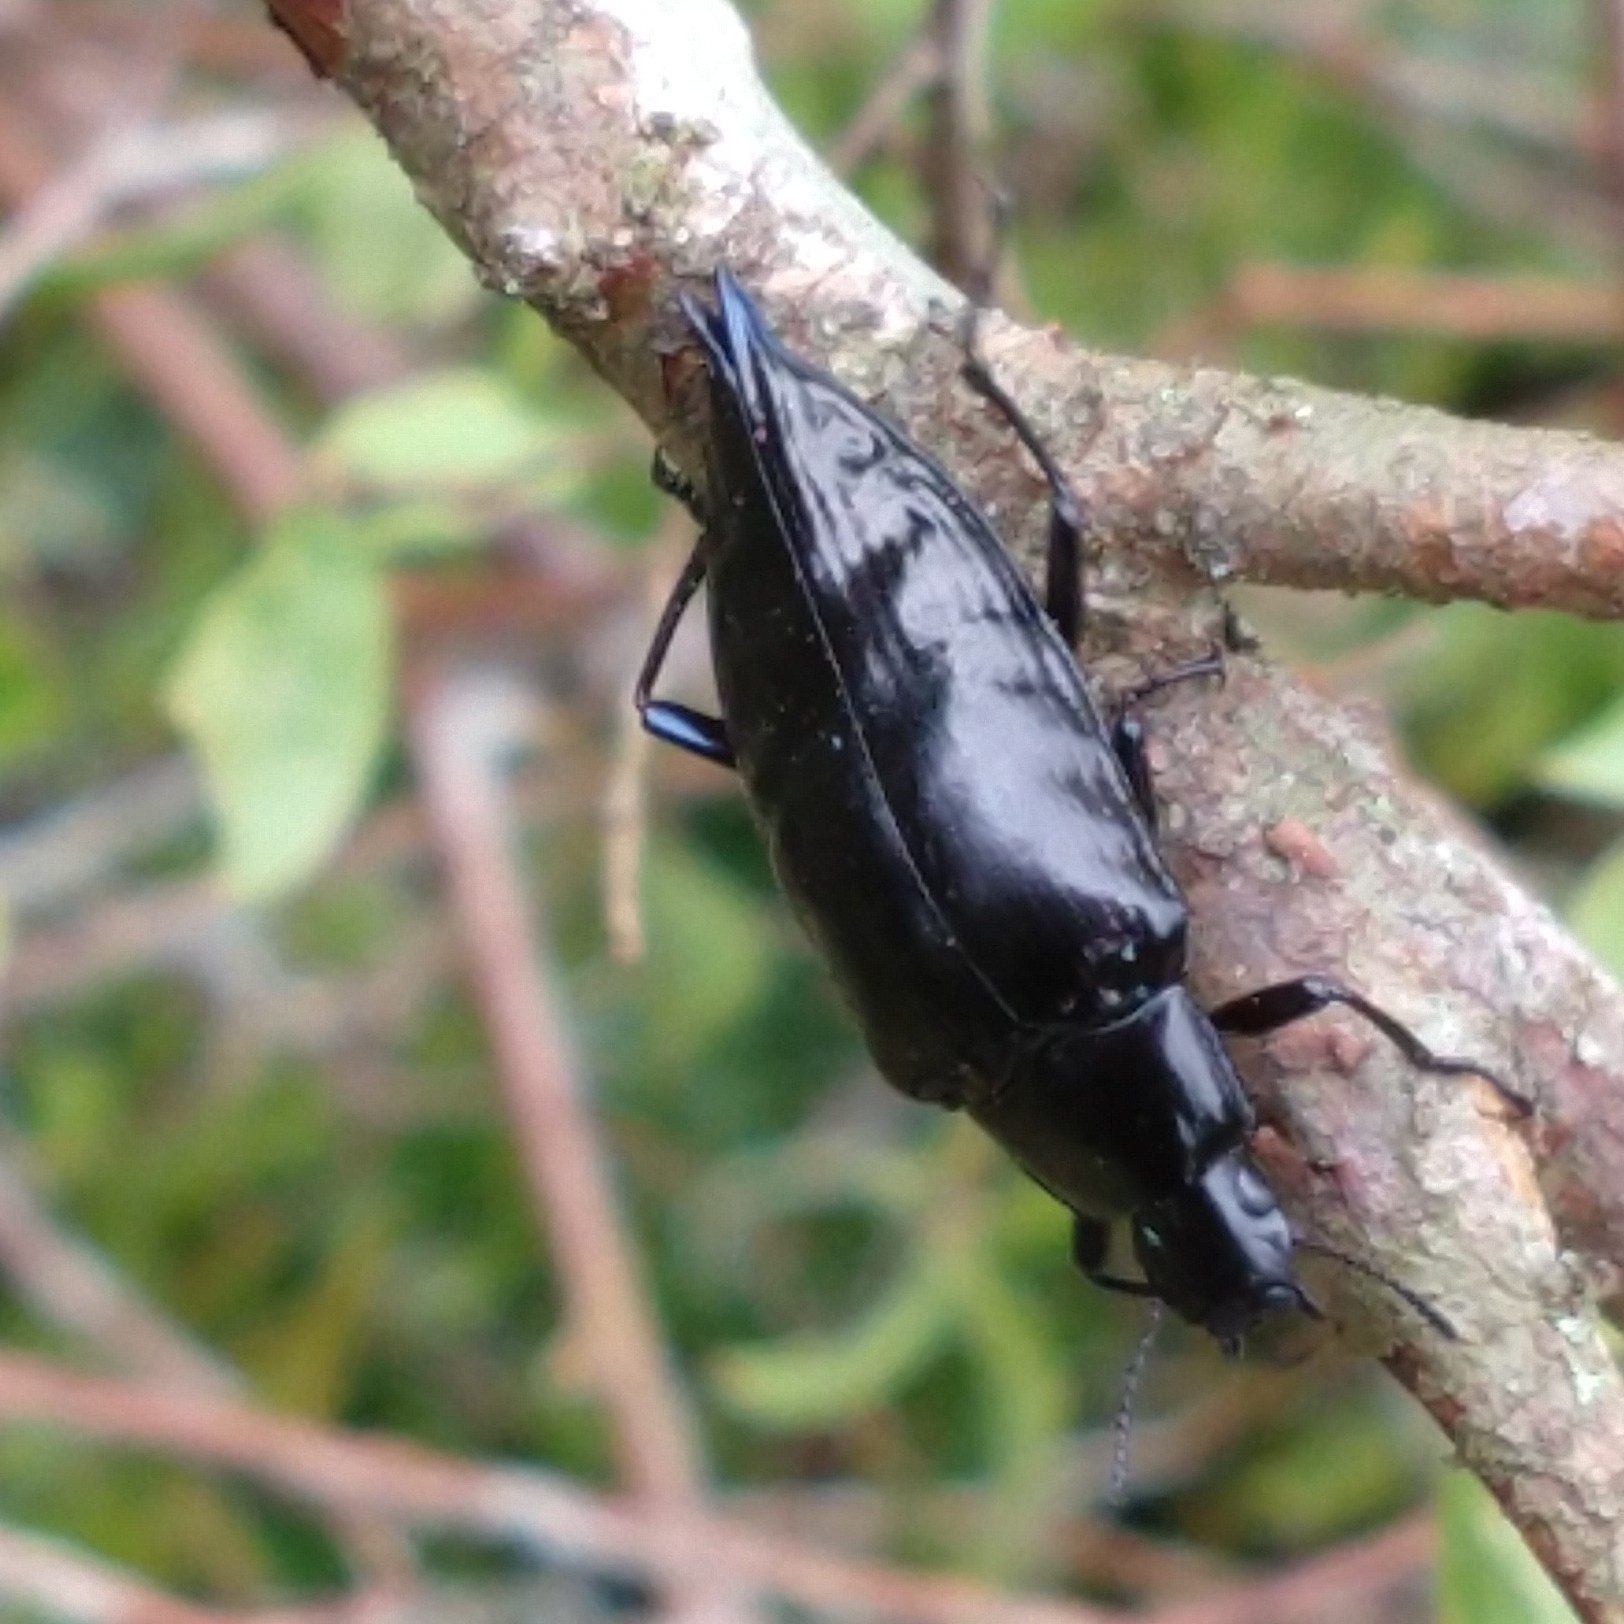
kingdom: Animalia
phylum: Arthropoda
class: Insecta
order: Coleoptera
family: Tenebrionidae
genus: Blapida
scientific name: Blapida
